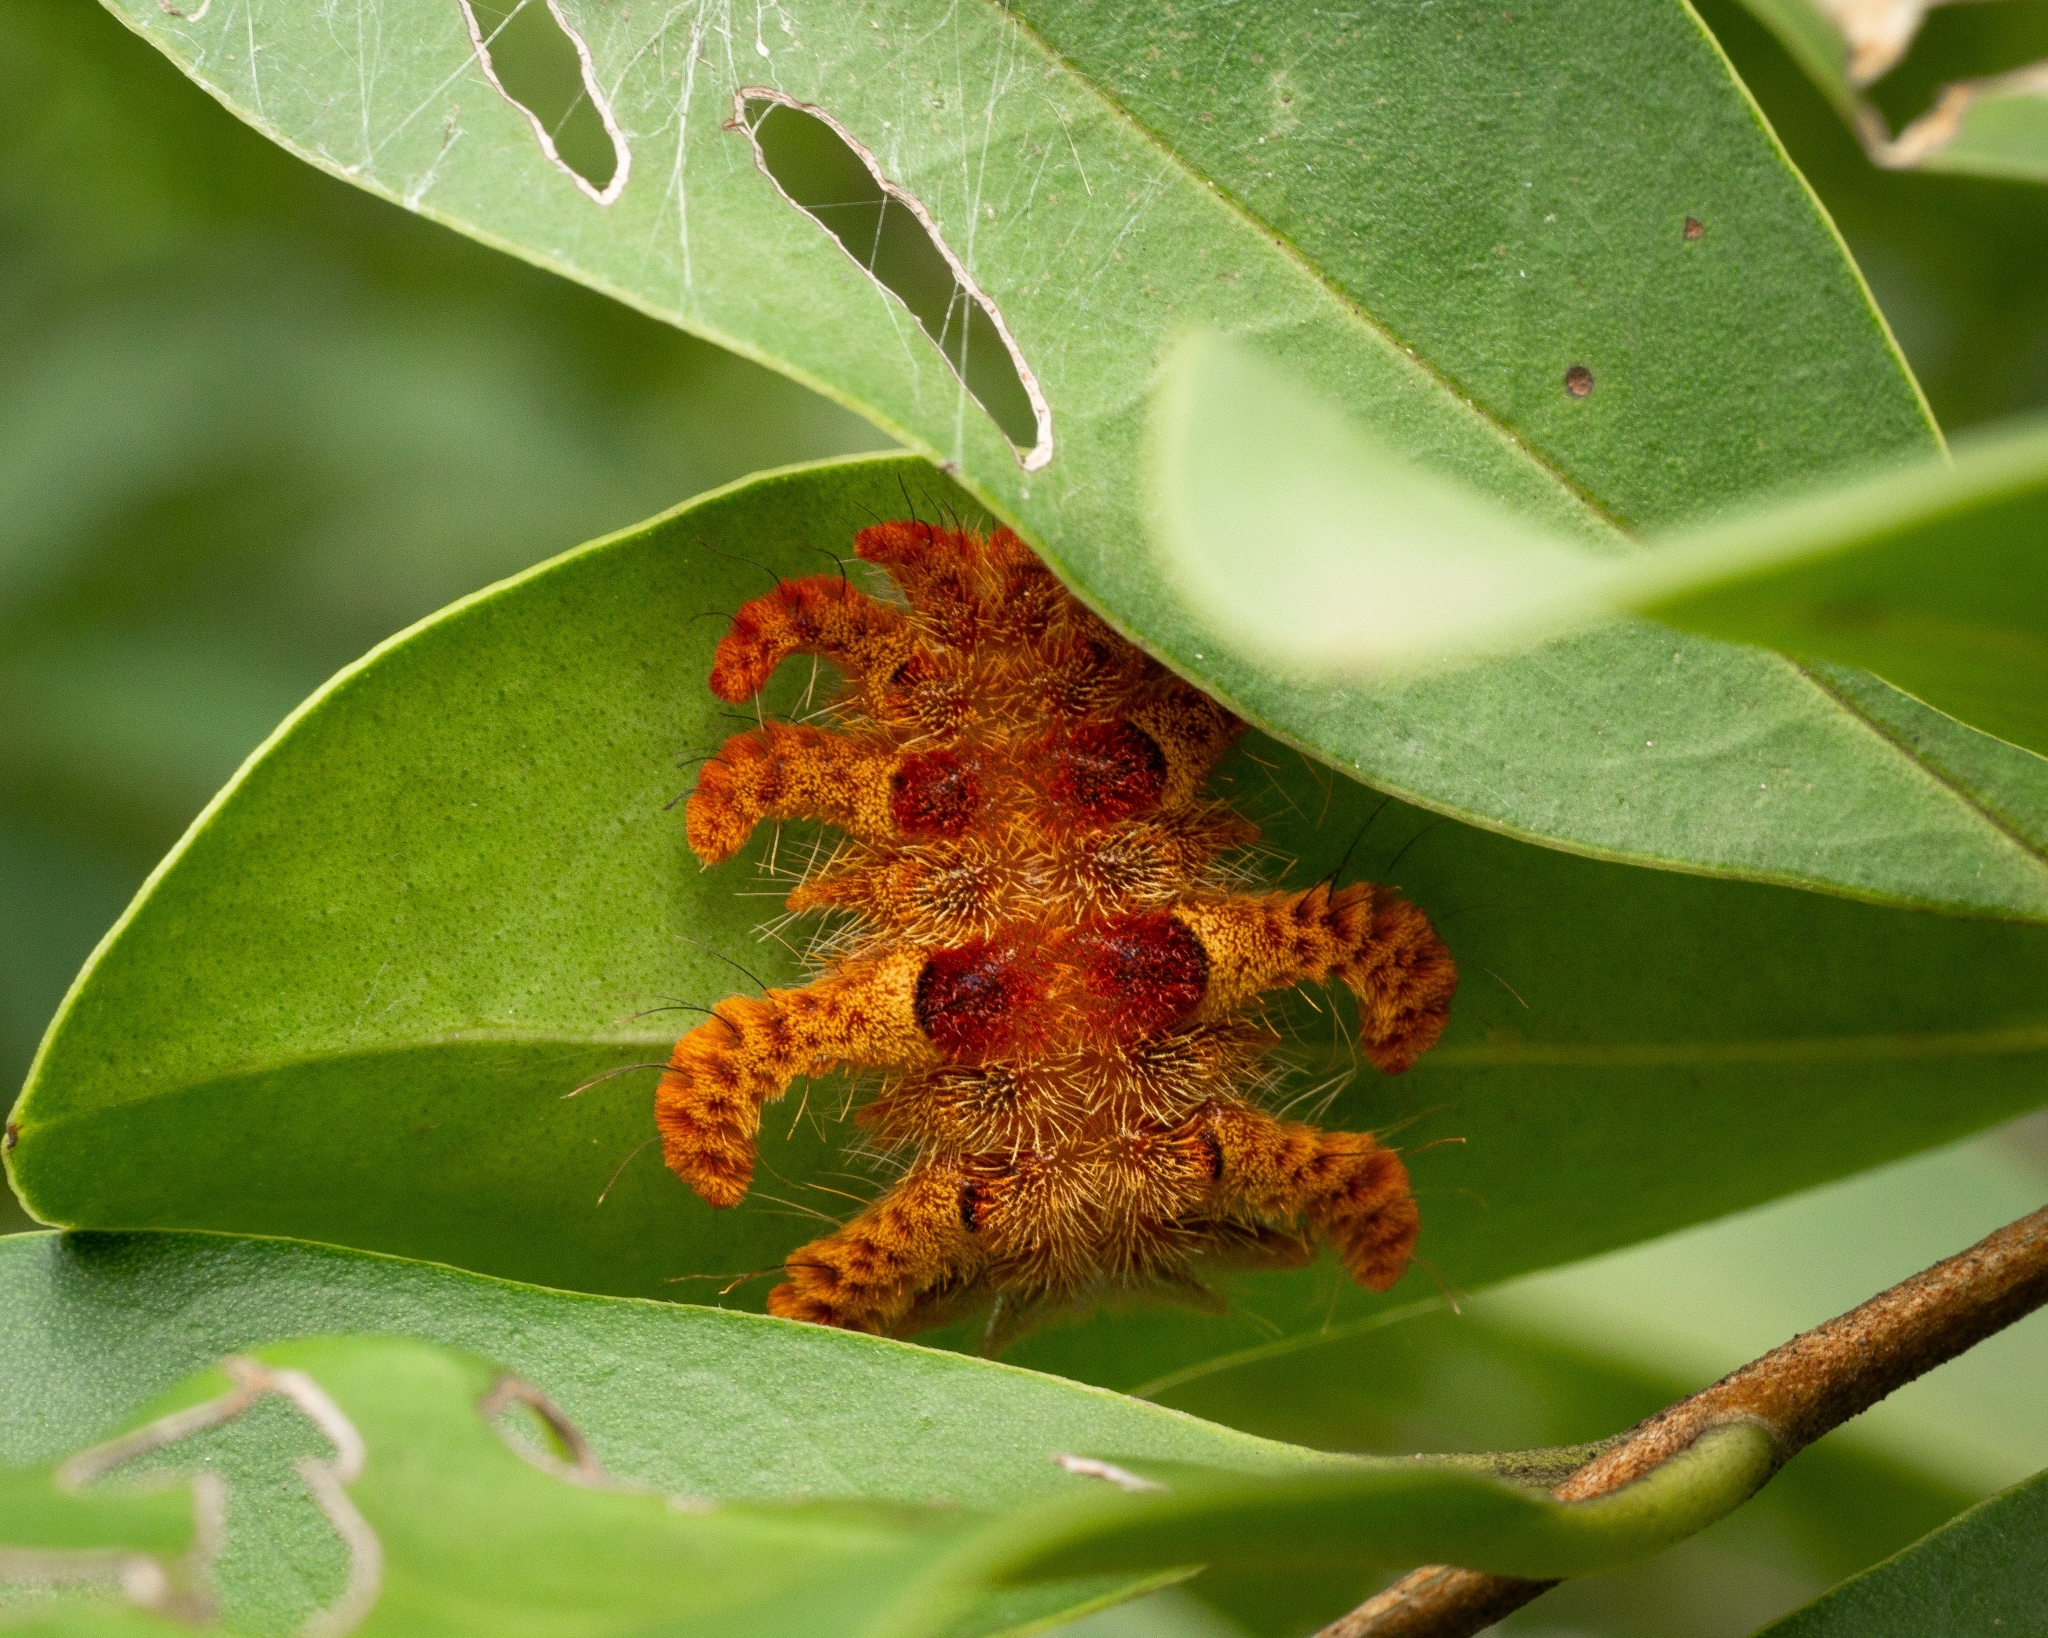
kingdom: Animalia
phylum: Arthropoda
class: Insecta
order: Lepidoptera
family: Limacodidae
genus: Phobetron
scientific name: Phobetron hipparchia
